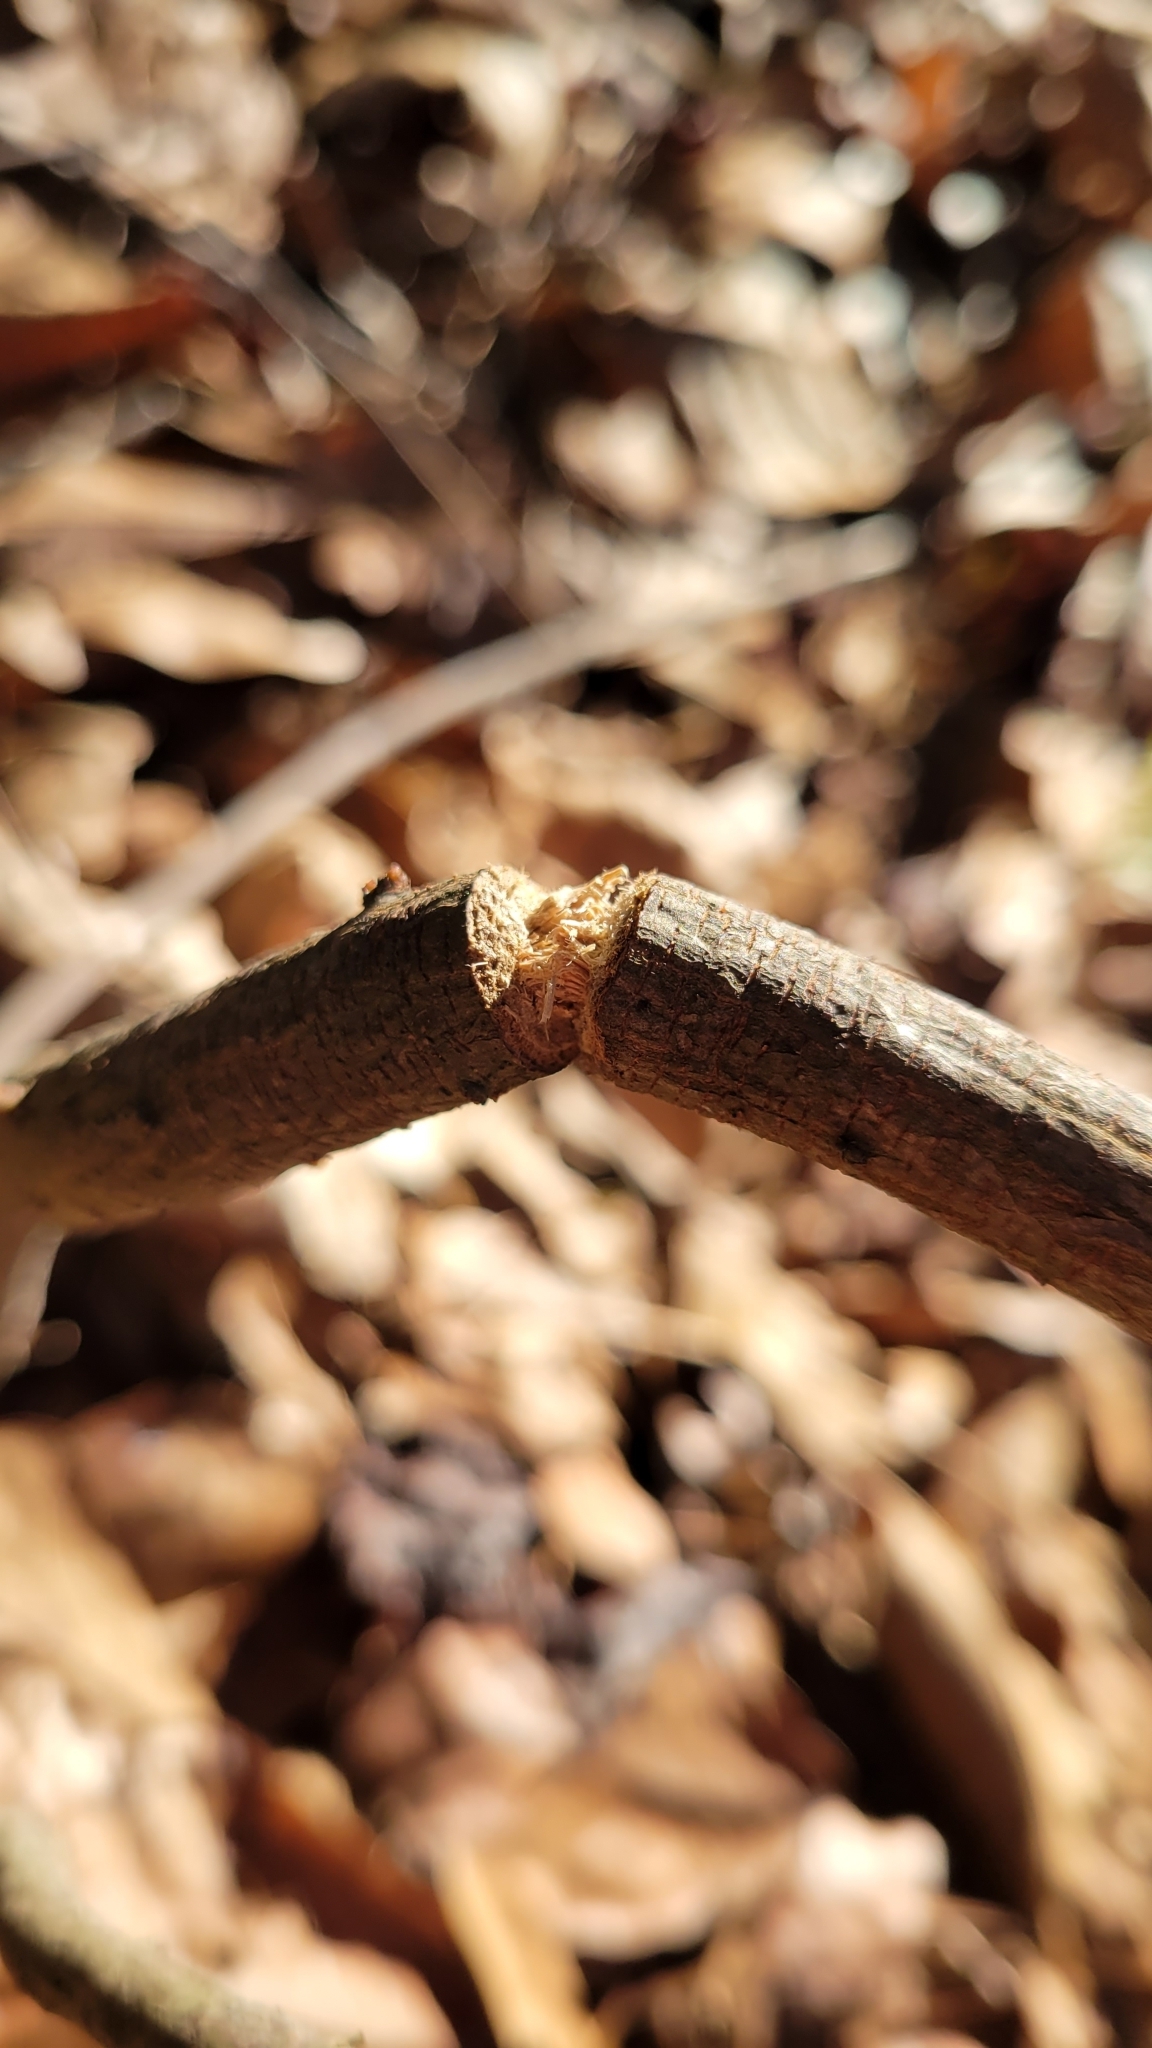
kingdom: Animalia
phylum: Arthropoda
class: Insecta
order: Coleoptera
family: Cerambycidae
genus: Oncideres
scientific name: Oncideres cingulata
